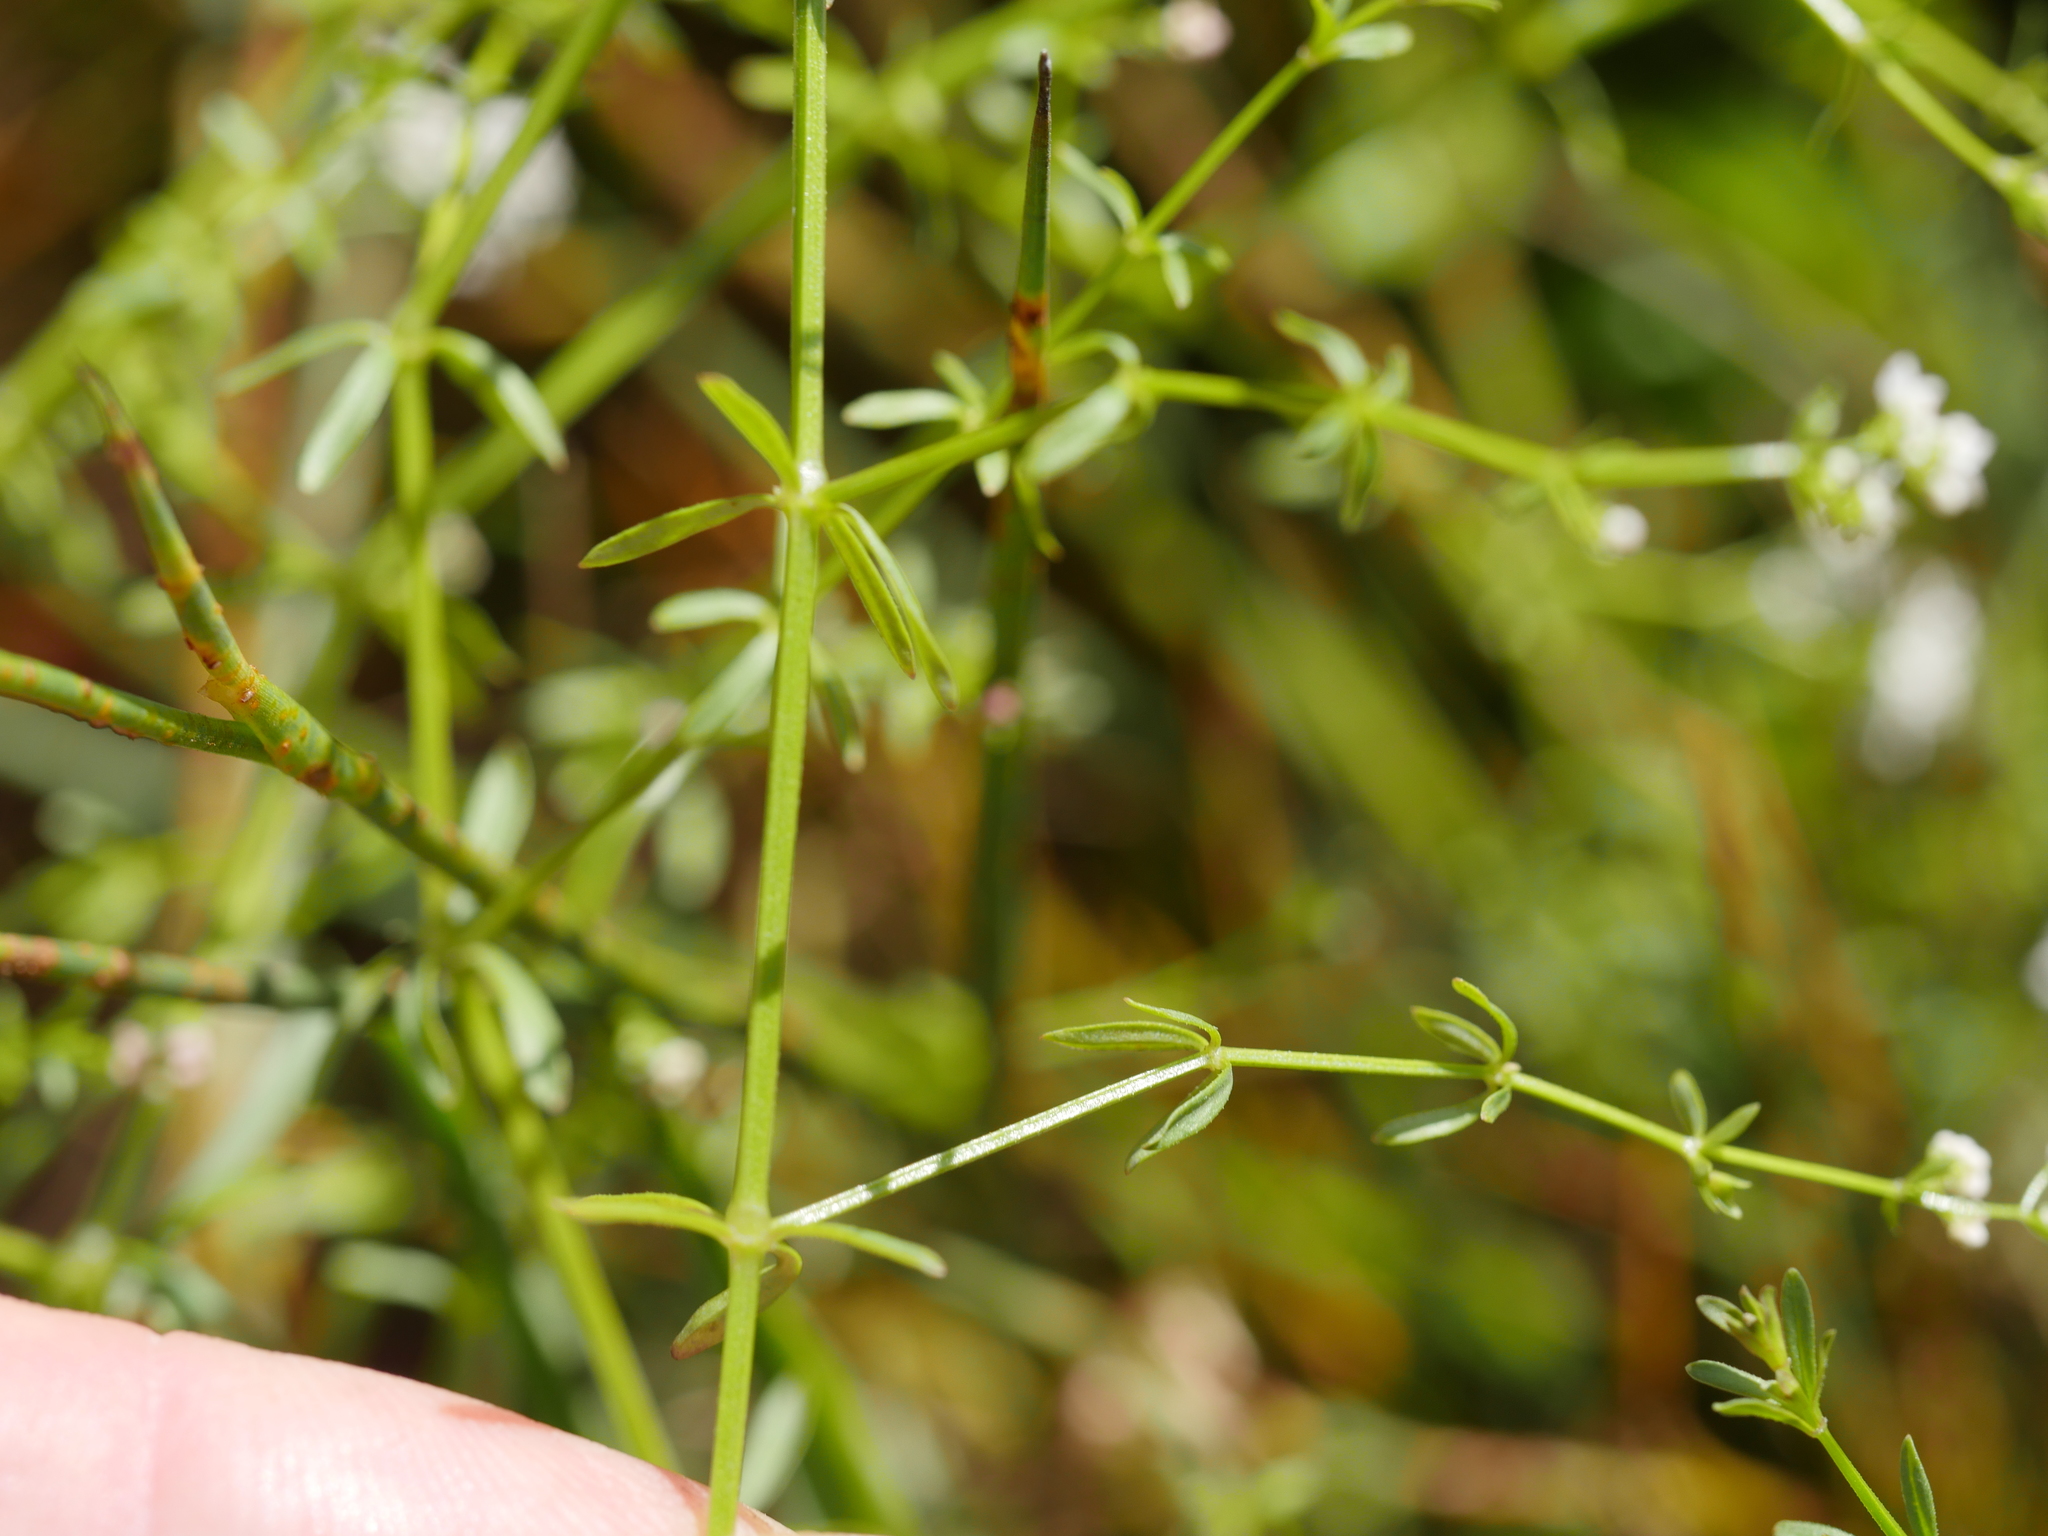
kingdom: Plantae
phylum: Tracheophyta
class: Magnoliopsida
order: Gentianales
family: Rubiaceae
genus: Galium
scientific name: Galium palustre
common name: Common marsh-bedstraw
